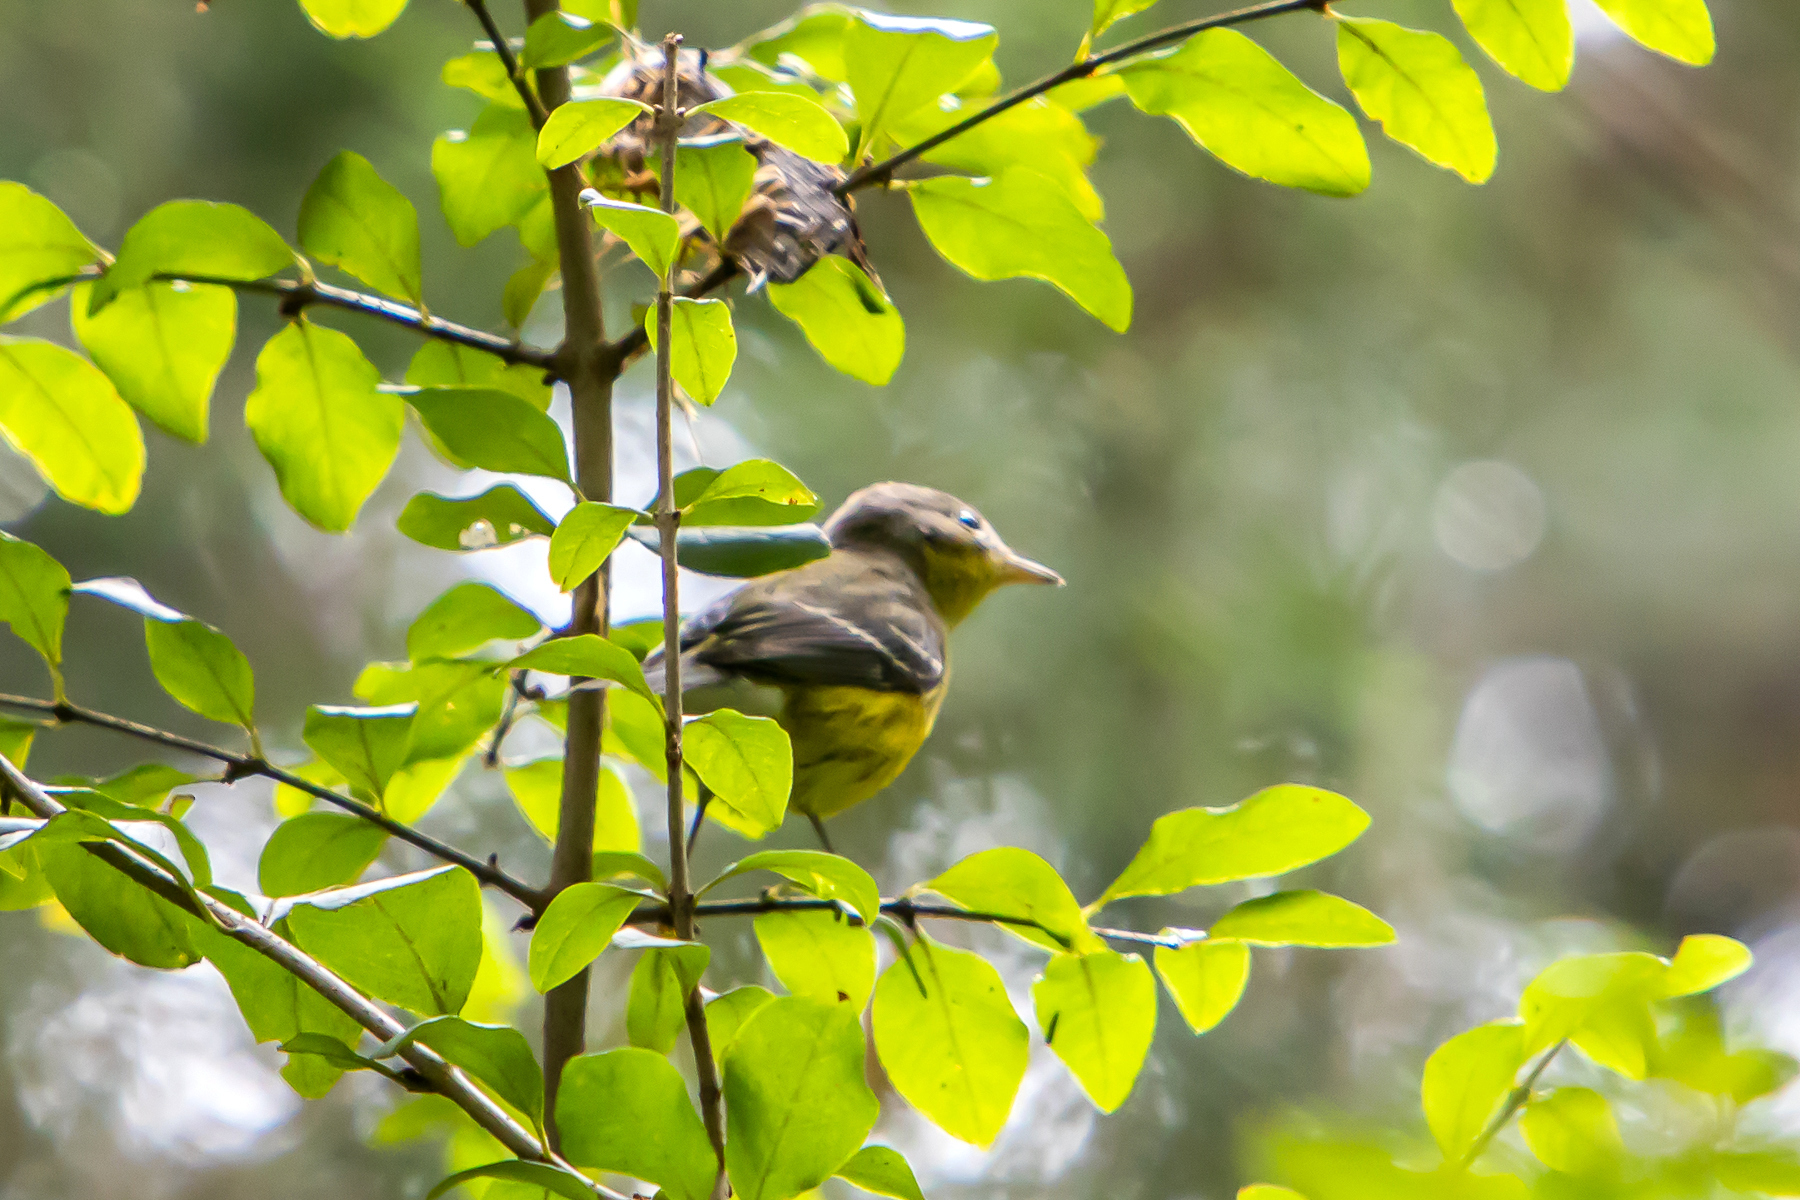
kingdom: Animalia
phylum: Chordata
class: Aves
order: Passeriformes
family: Parulidae
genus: Setophaga
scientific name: Setophaga magnolia
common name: Magnolia warbler
